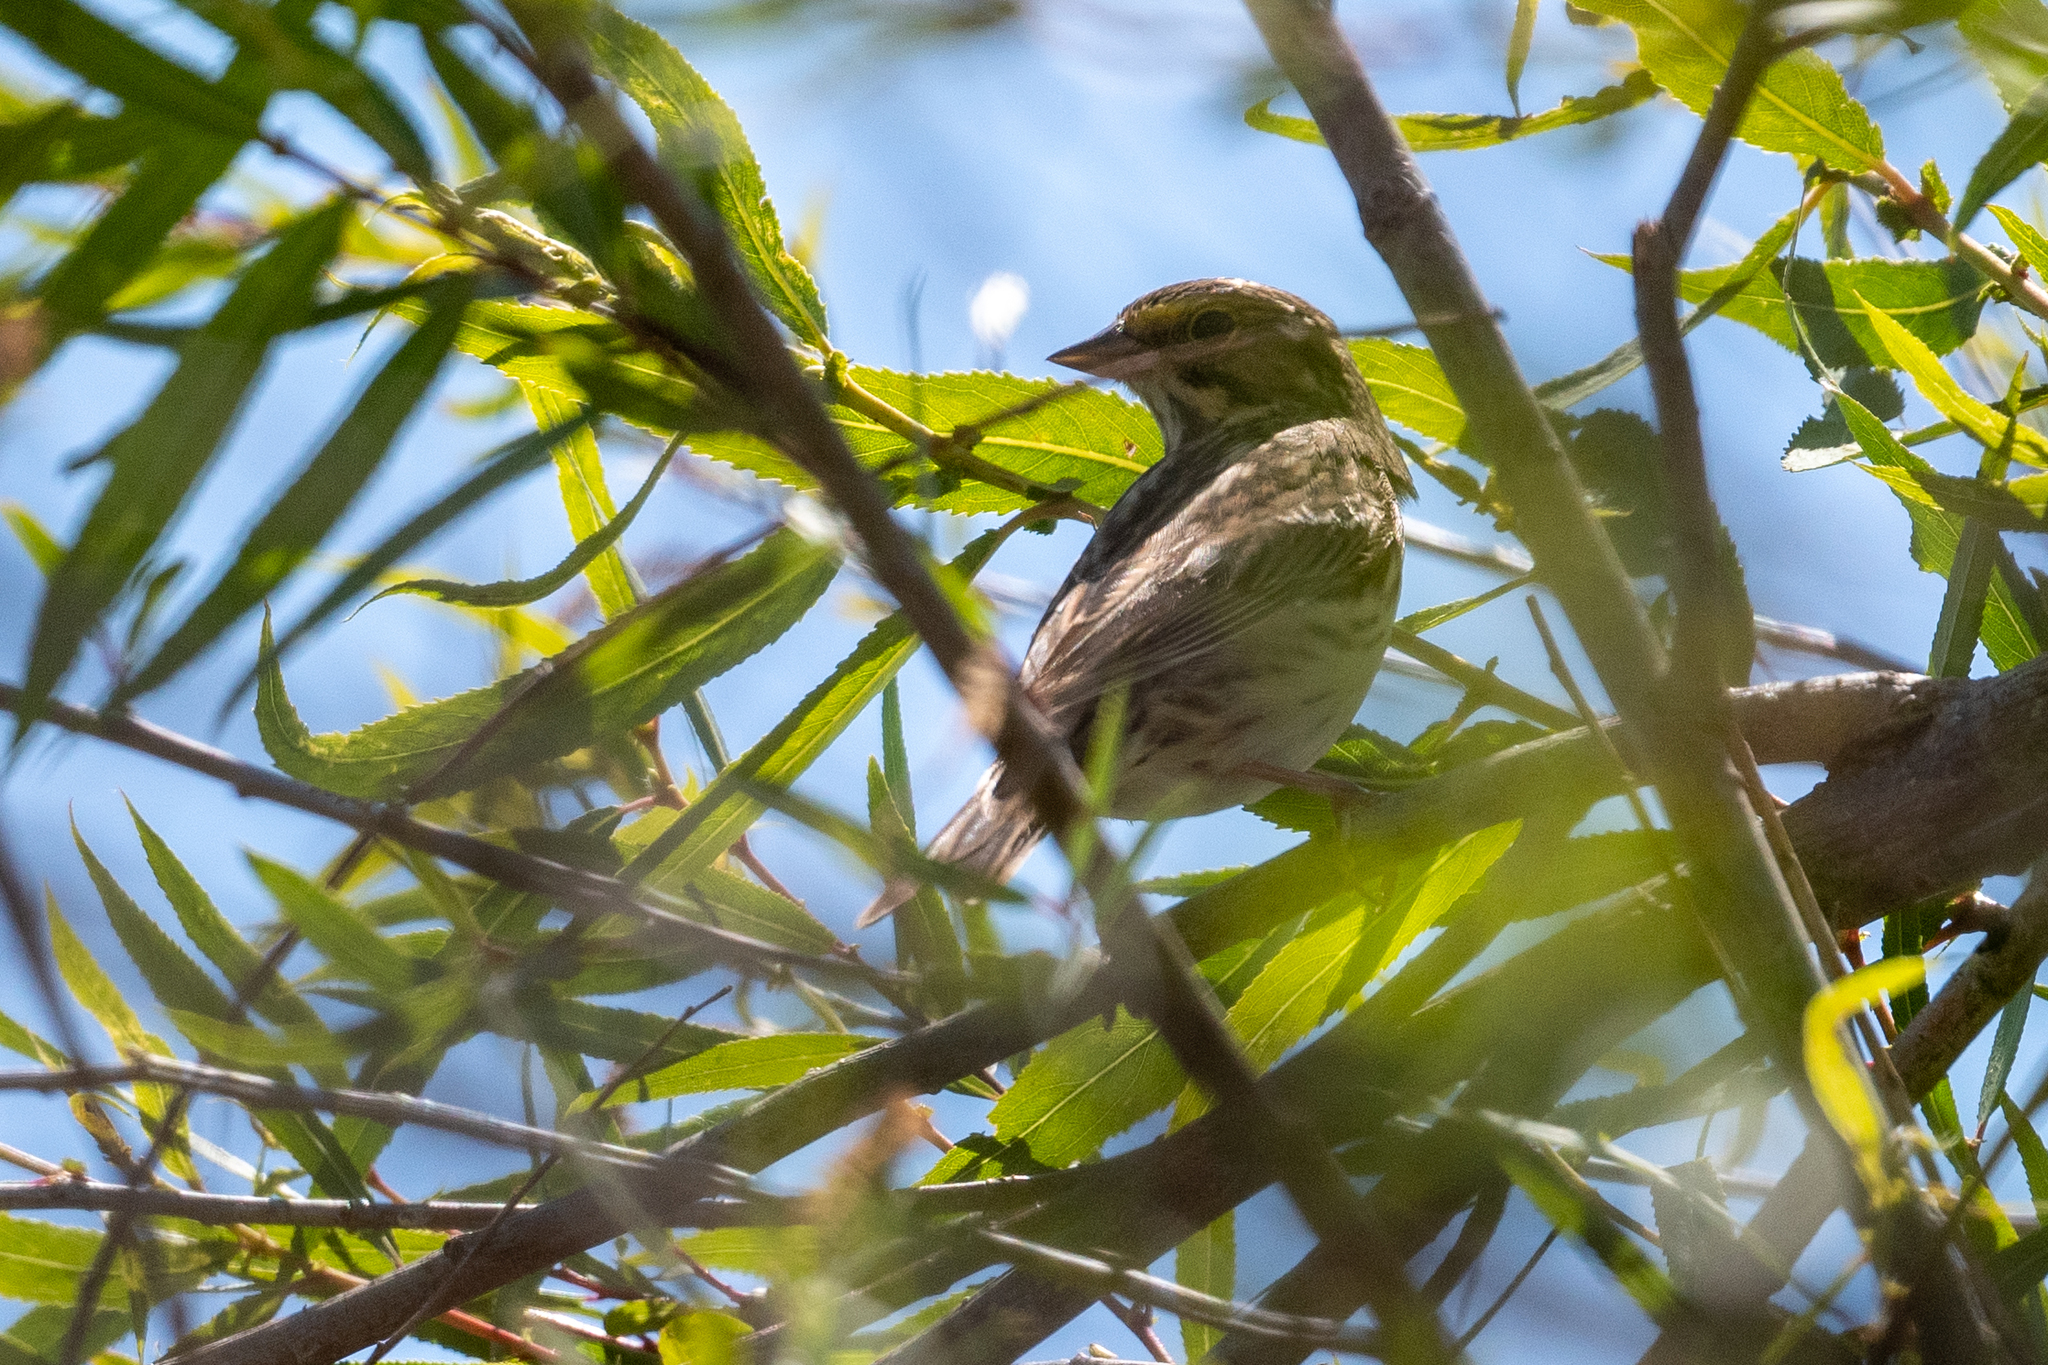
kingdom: Animalia
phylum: Chordata
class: Aves
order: Passeriformes
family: Passerellidae
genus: Passerculus
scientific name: Passerculus sandwichensis
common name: Savannah sparrow
